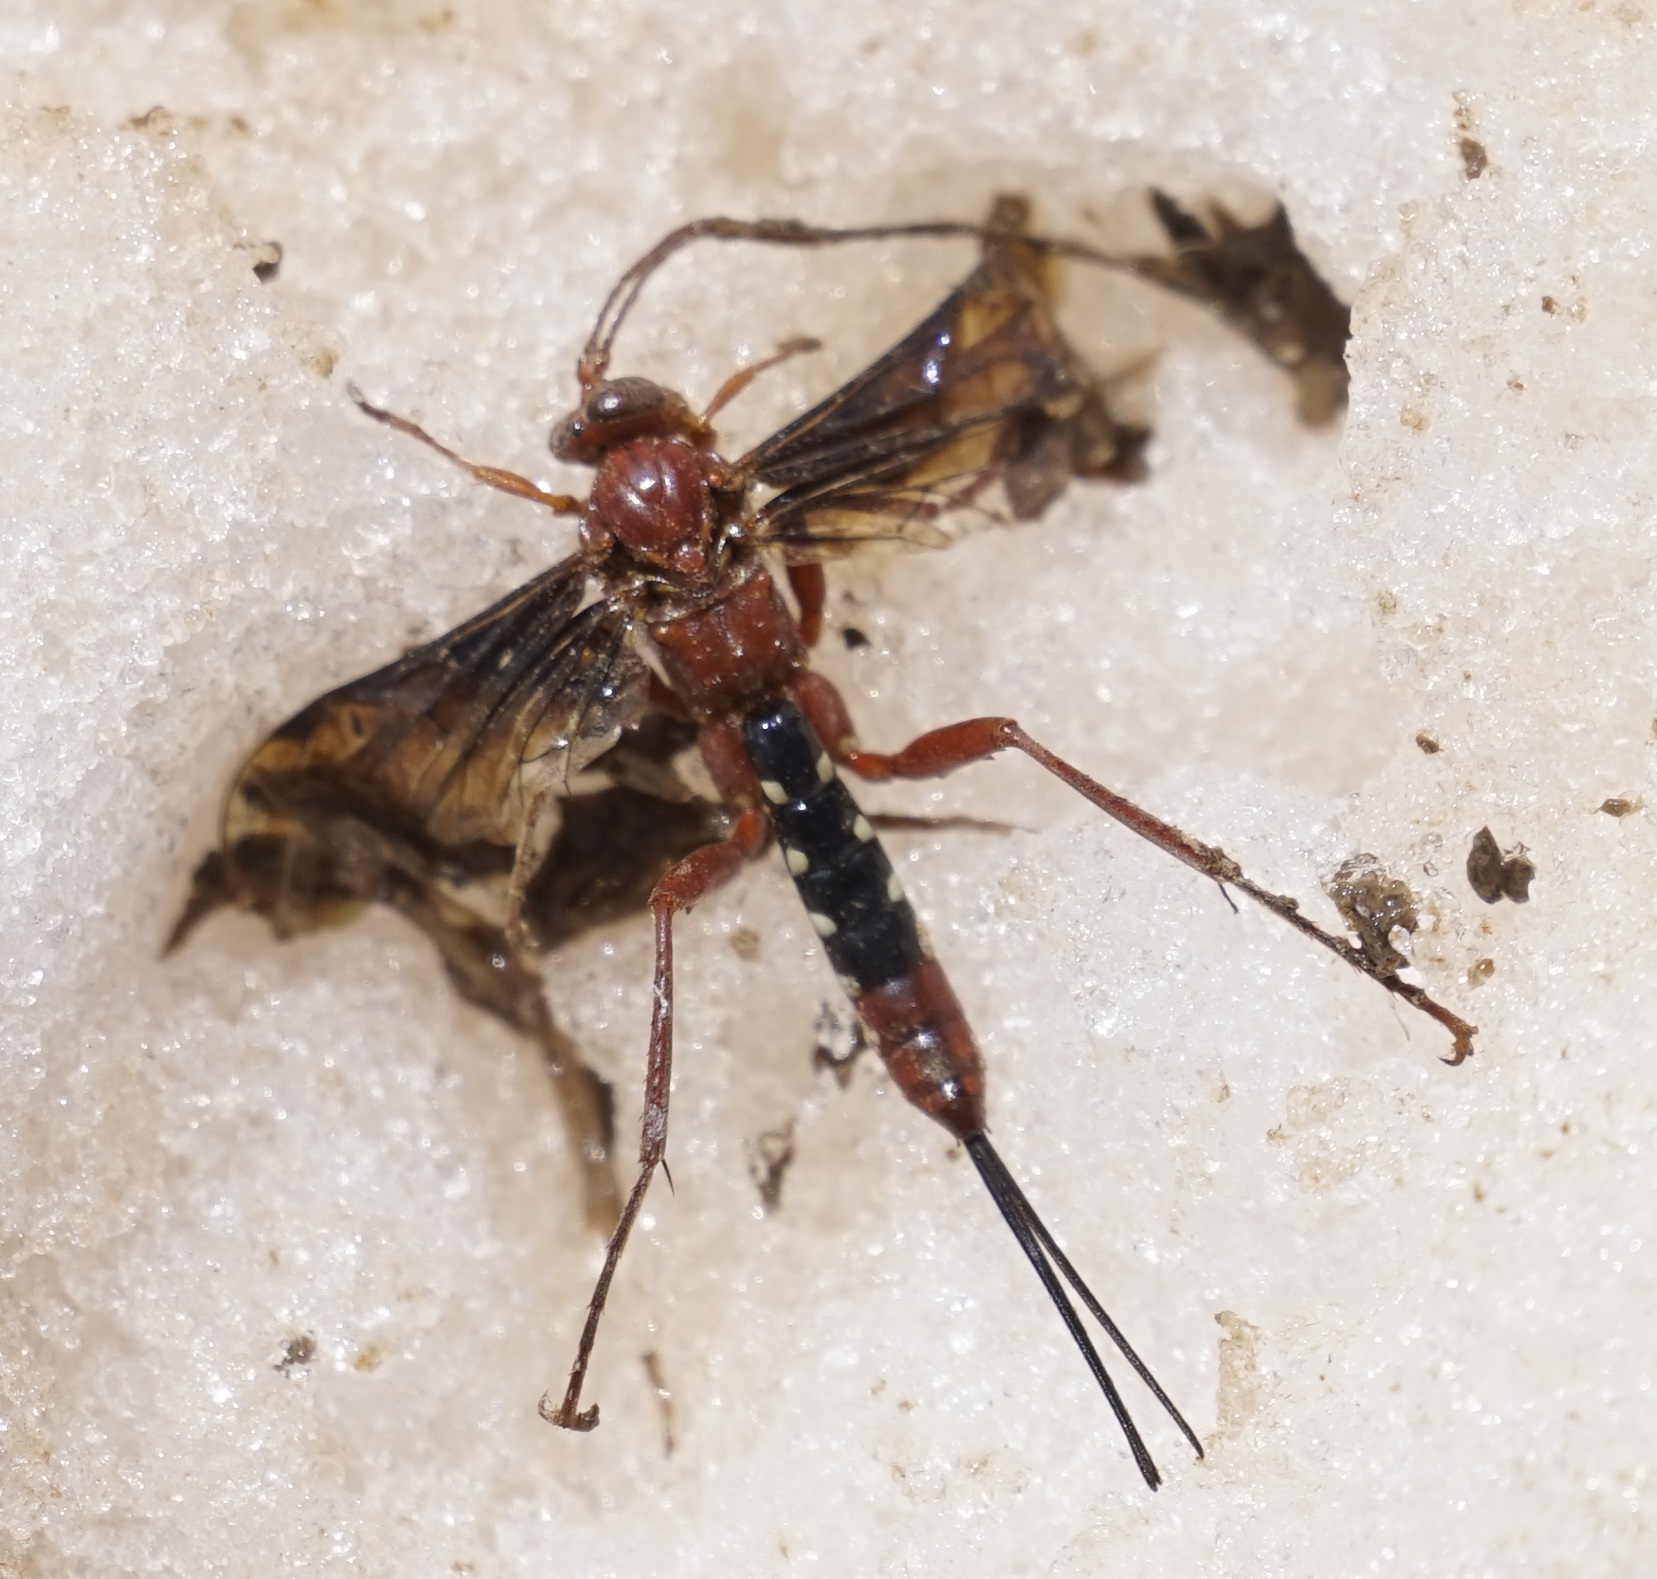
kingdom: Animalia
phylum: Arthropoda
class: Insecta
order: Hymenoptera
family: Ichneumonidae
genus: Lissopimpla
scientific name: Lissopimpla excelsa
